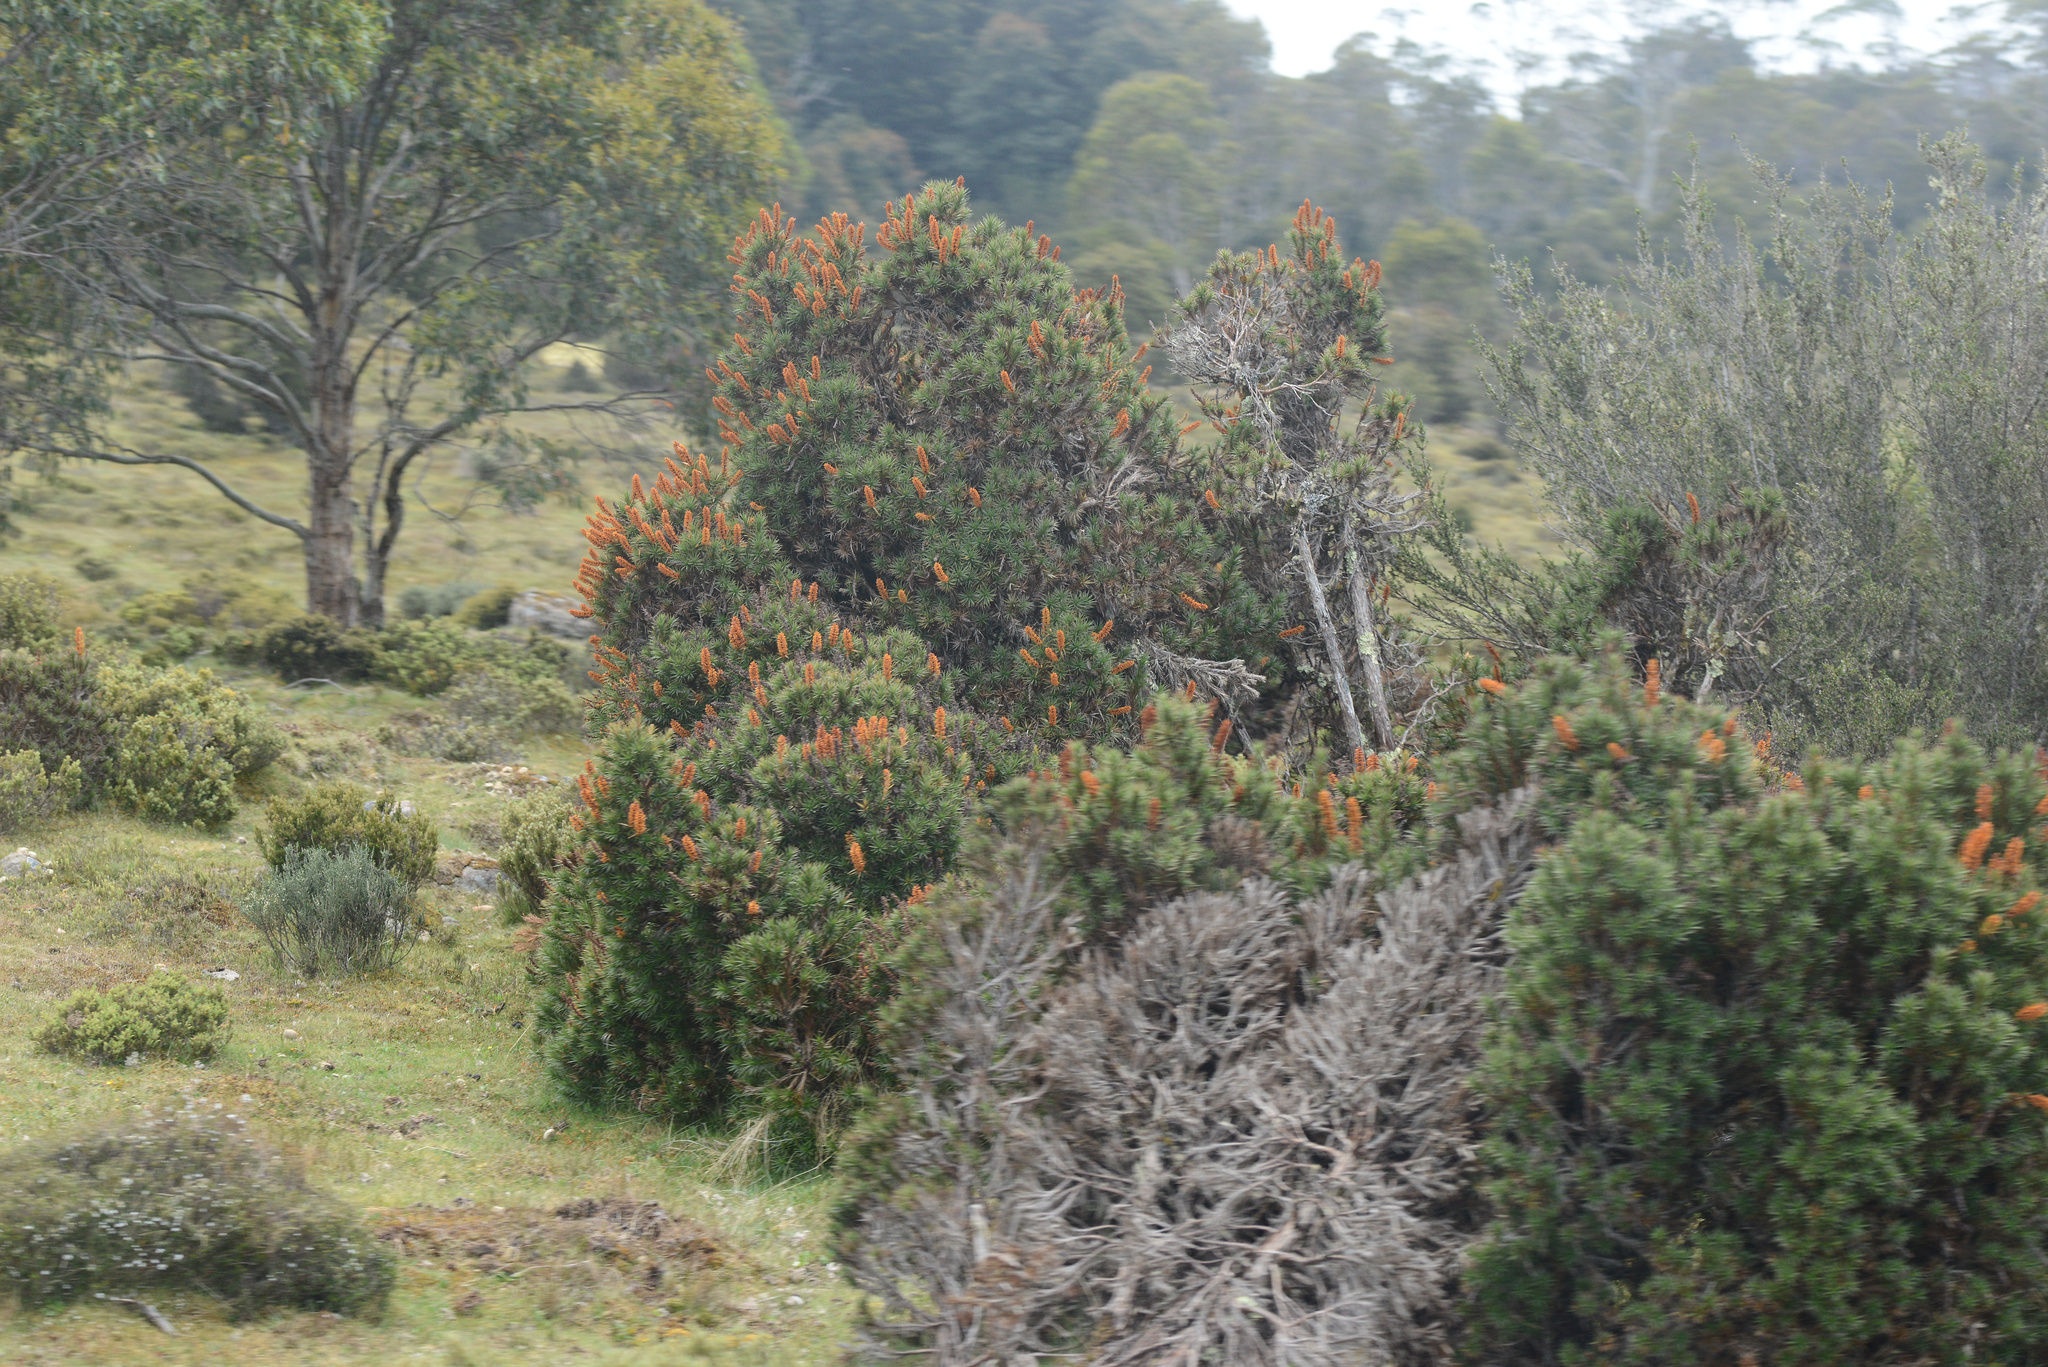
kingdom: Plantae
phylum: Tracheophyta
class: Magnoliopsida
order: Ericales
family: Ericaceae
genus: Dracophyllum
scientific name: Dracophyllum persistentifolium
